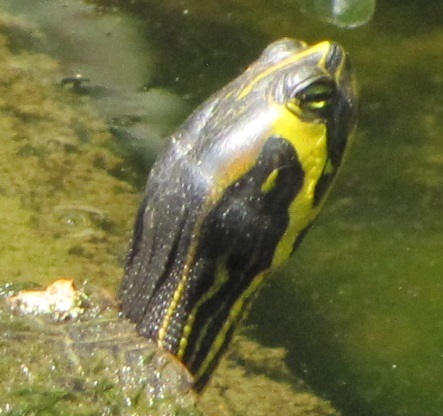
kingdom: Animalia
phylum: Chordata
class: Testudines
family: Emydidae
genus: Trachemys
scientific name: Trachemys scripta
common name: Slider
